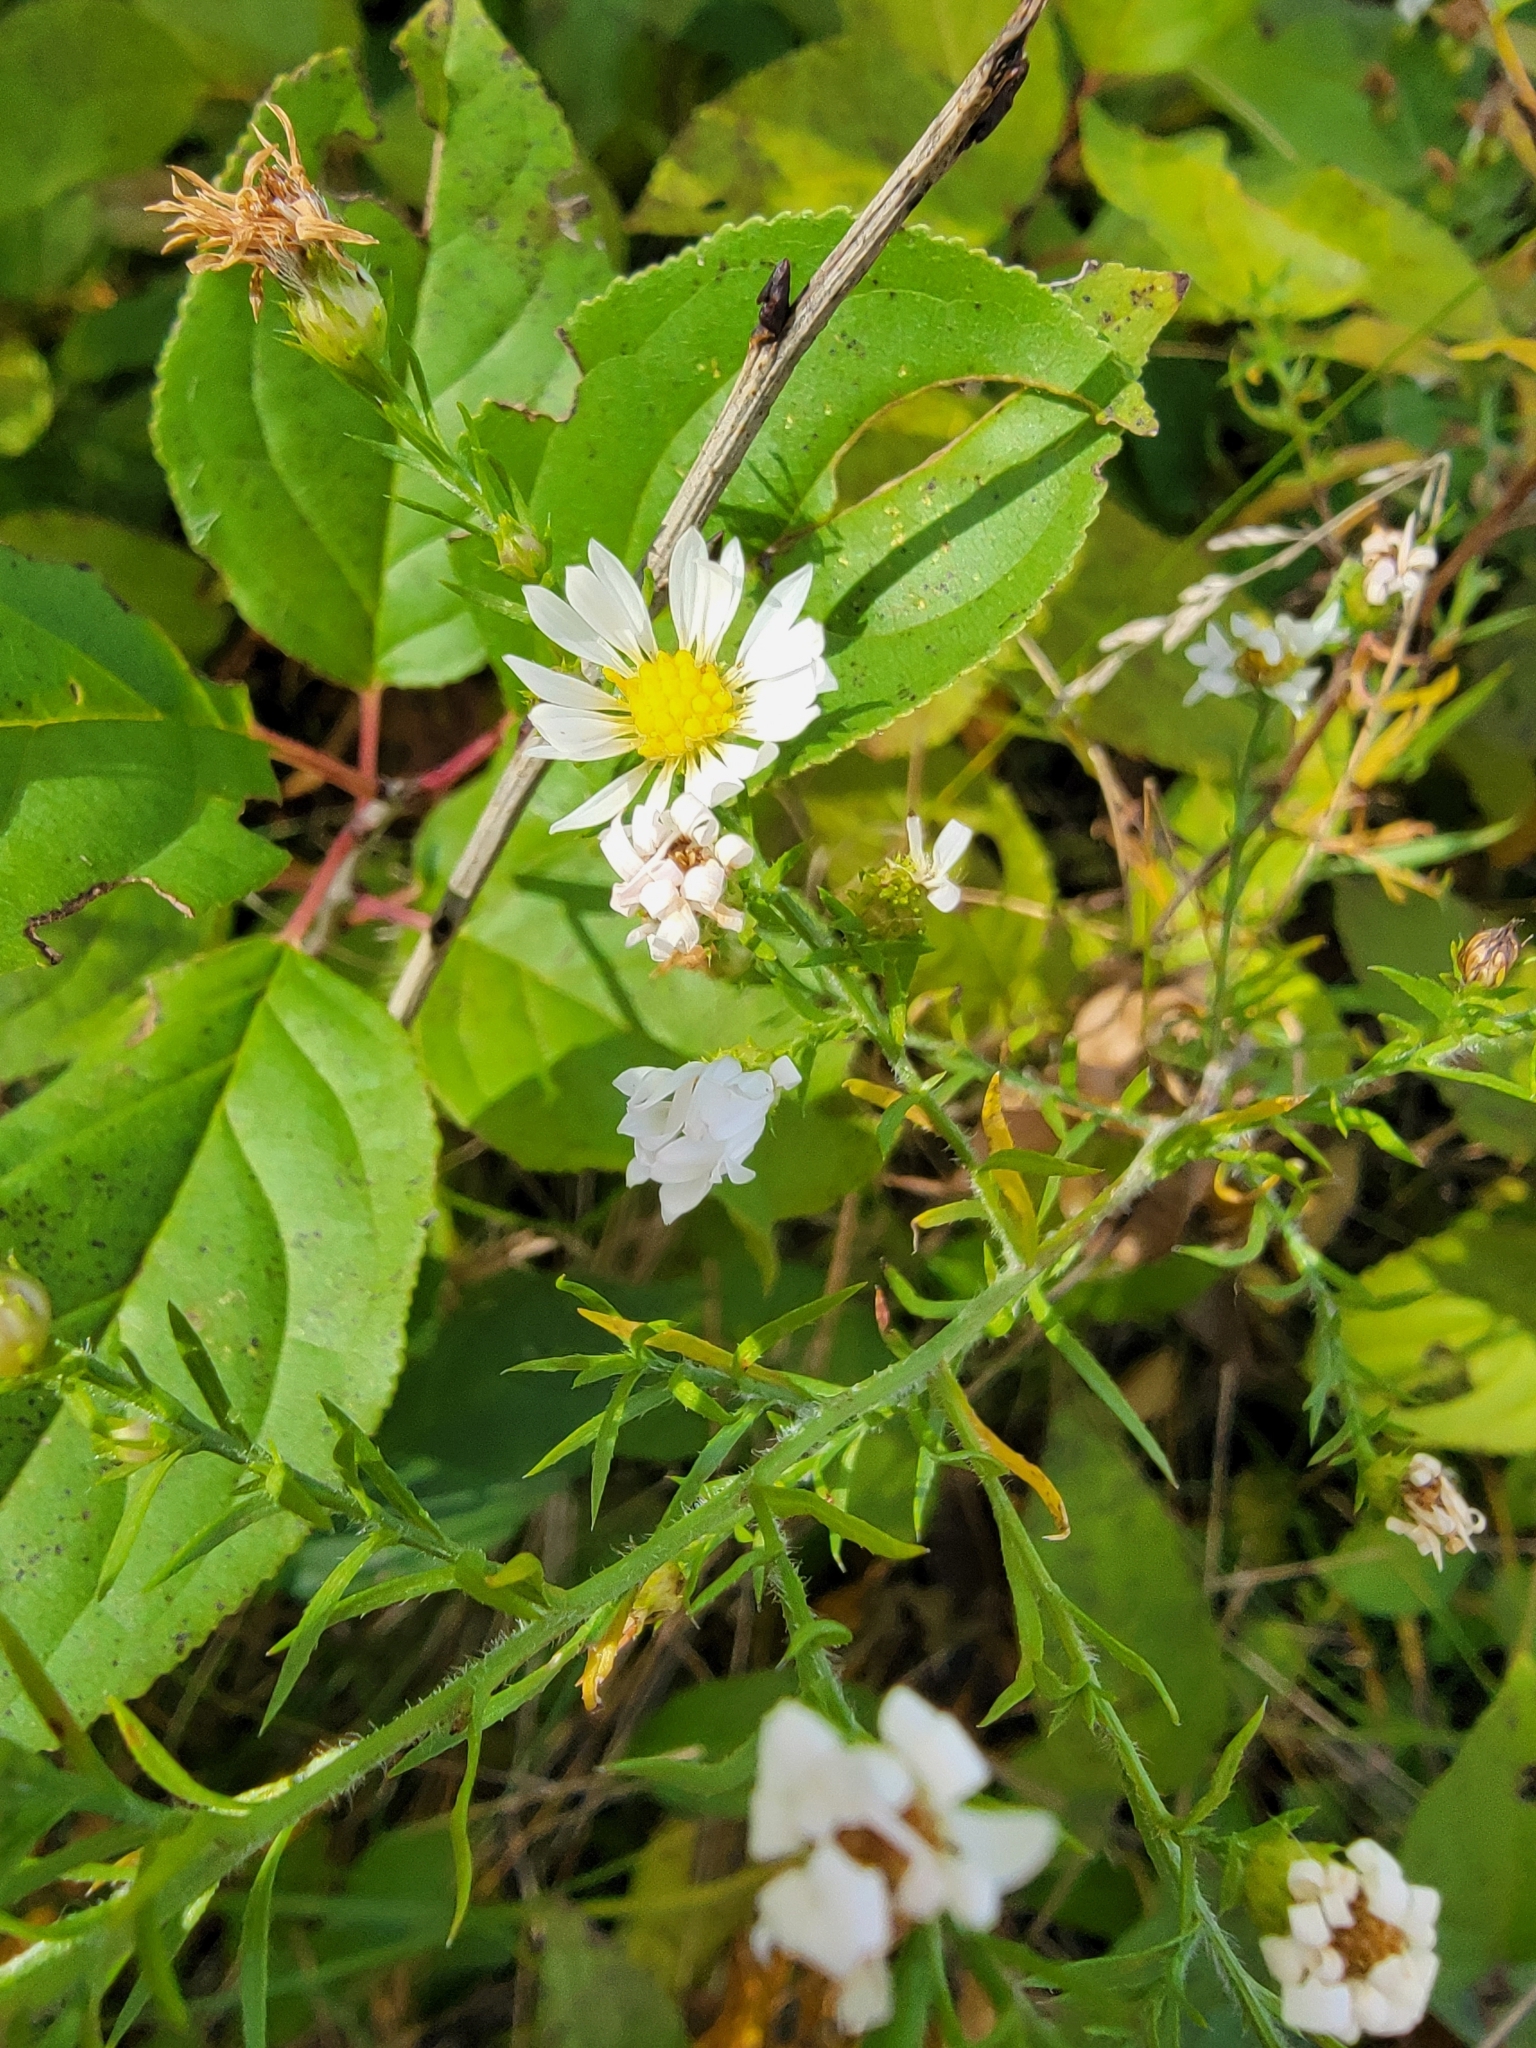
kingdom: Plantae
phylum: Tracheophyta
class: Magnoliopsida
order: Asterales
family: Asteraceae
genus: Symphyotrichum
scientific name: Symphyotrichum pilosum
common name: Awl aster
